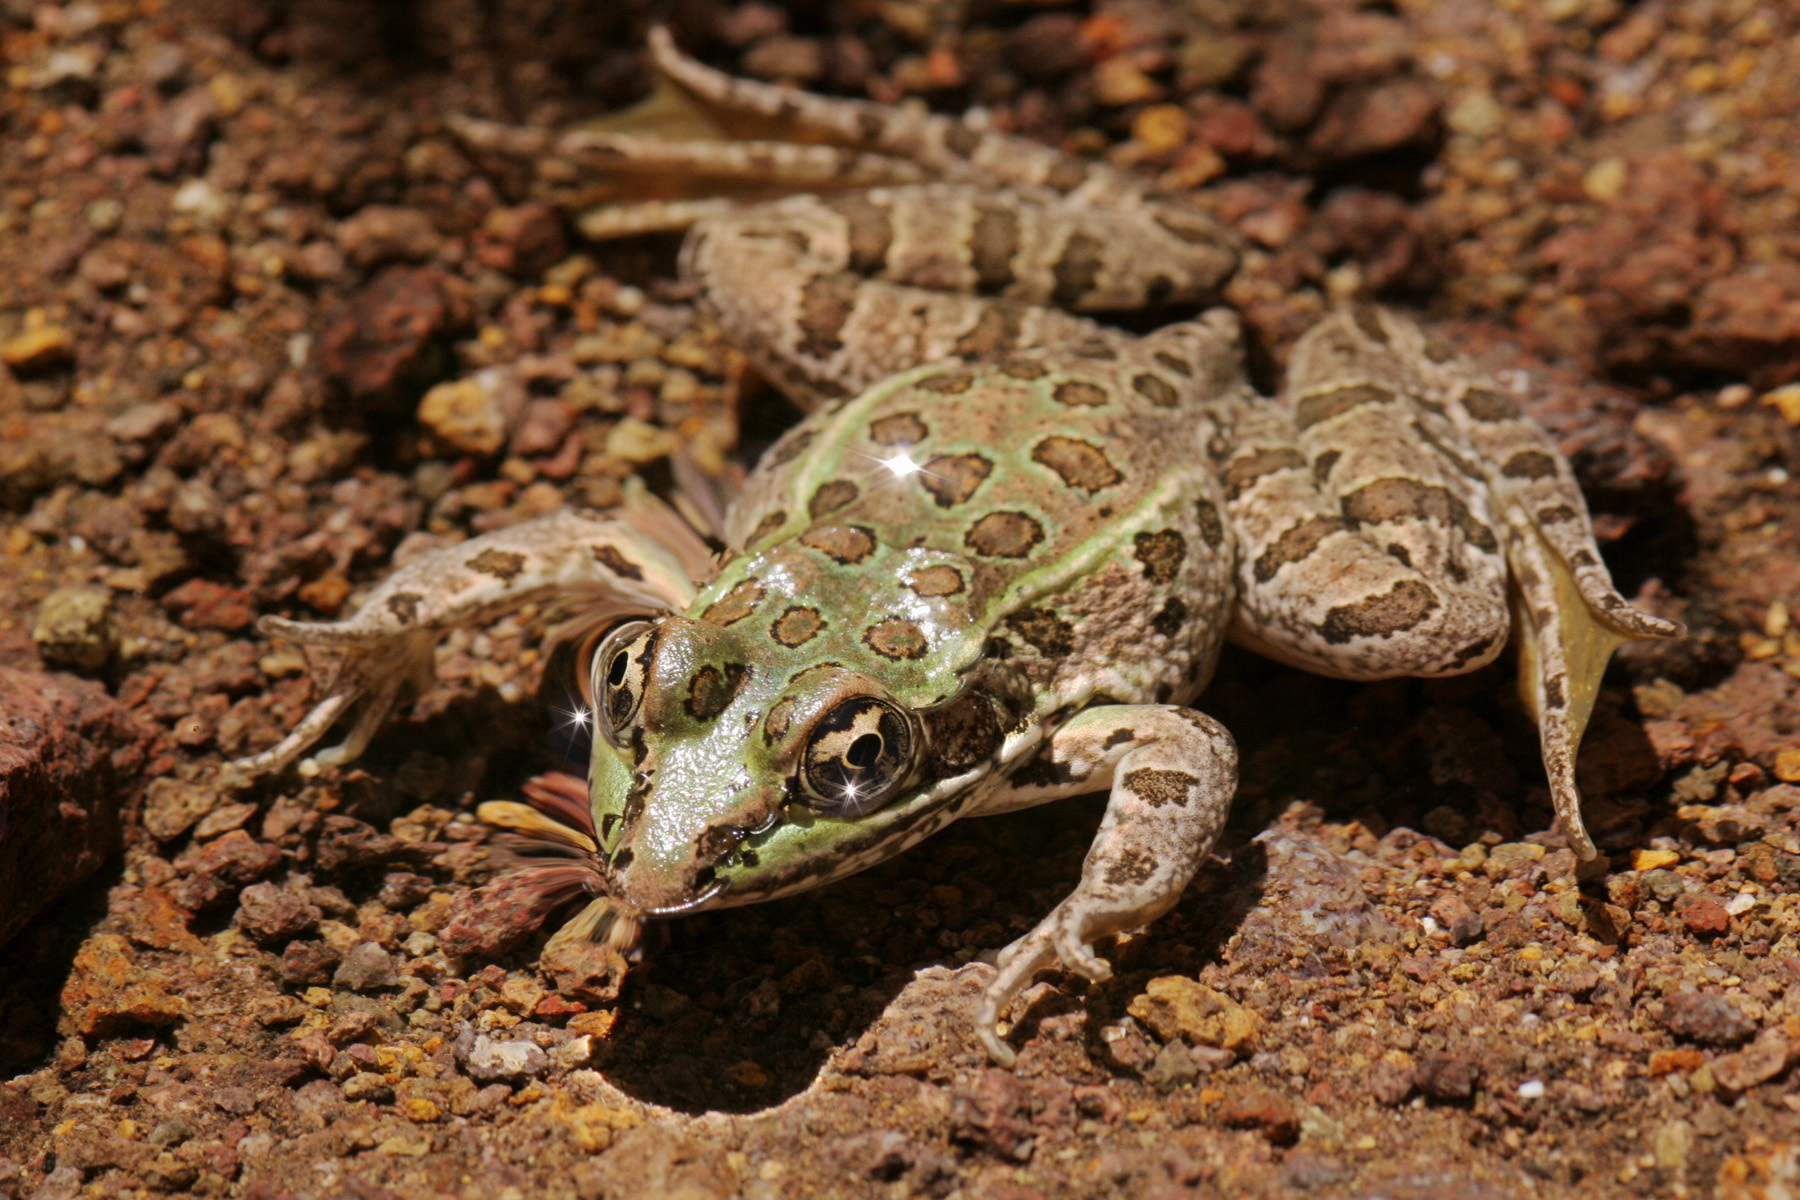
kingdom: Animalia
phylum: Chordata
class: Amphibia
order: Anura
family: Ranidae
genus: Lithobates
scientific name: Lithobates chiricahuensis
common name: Chiricahua leopard frog
